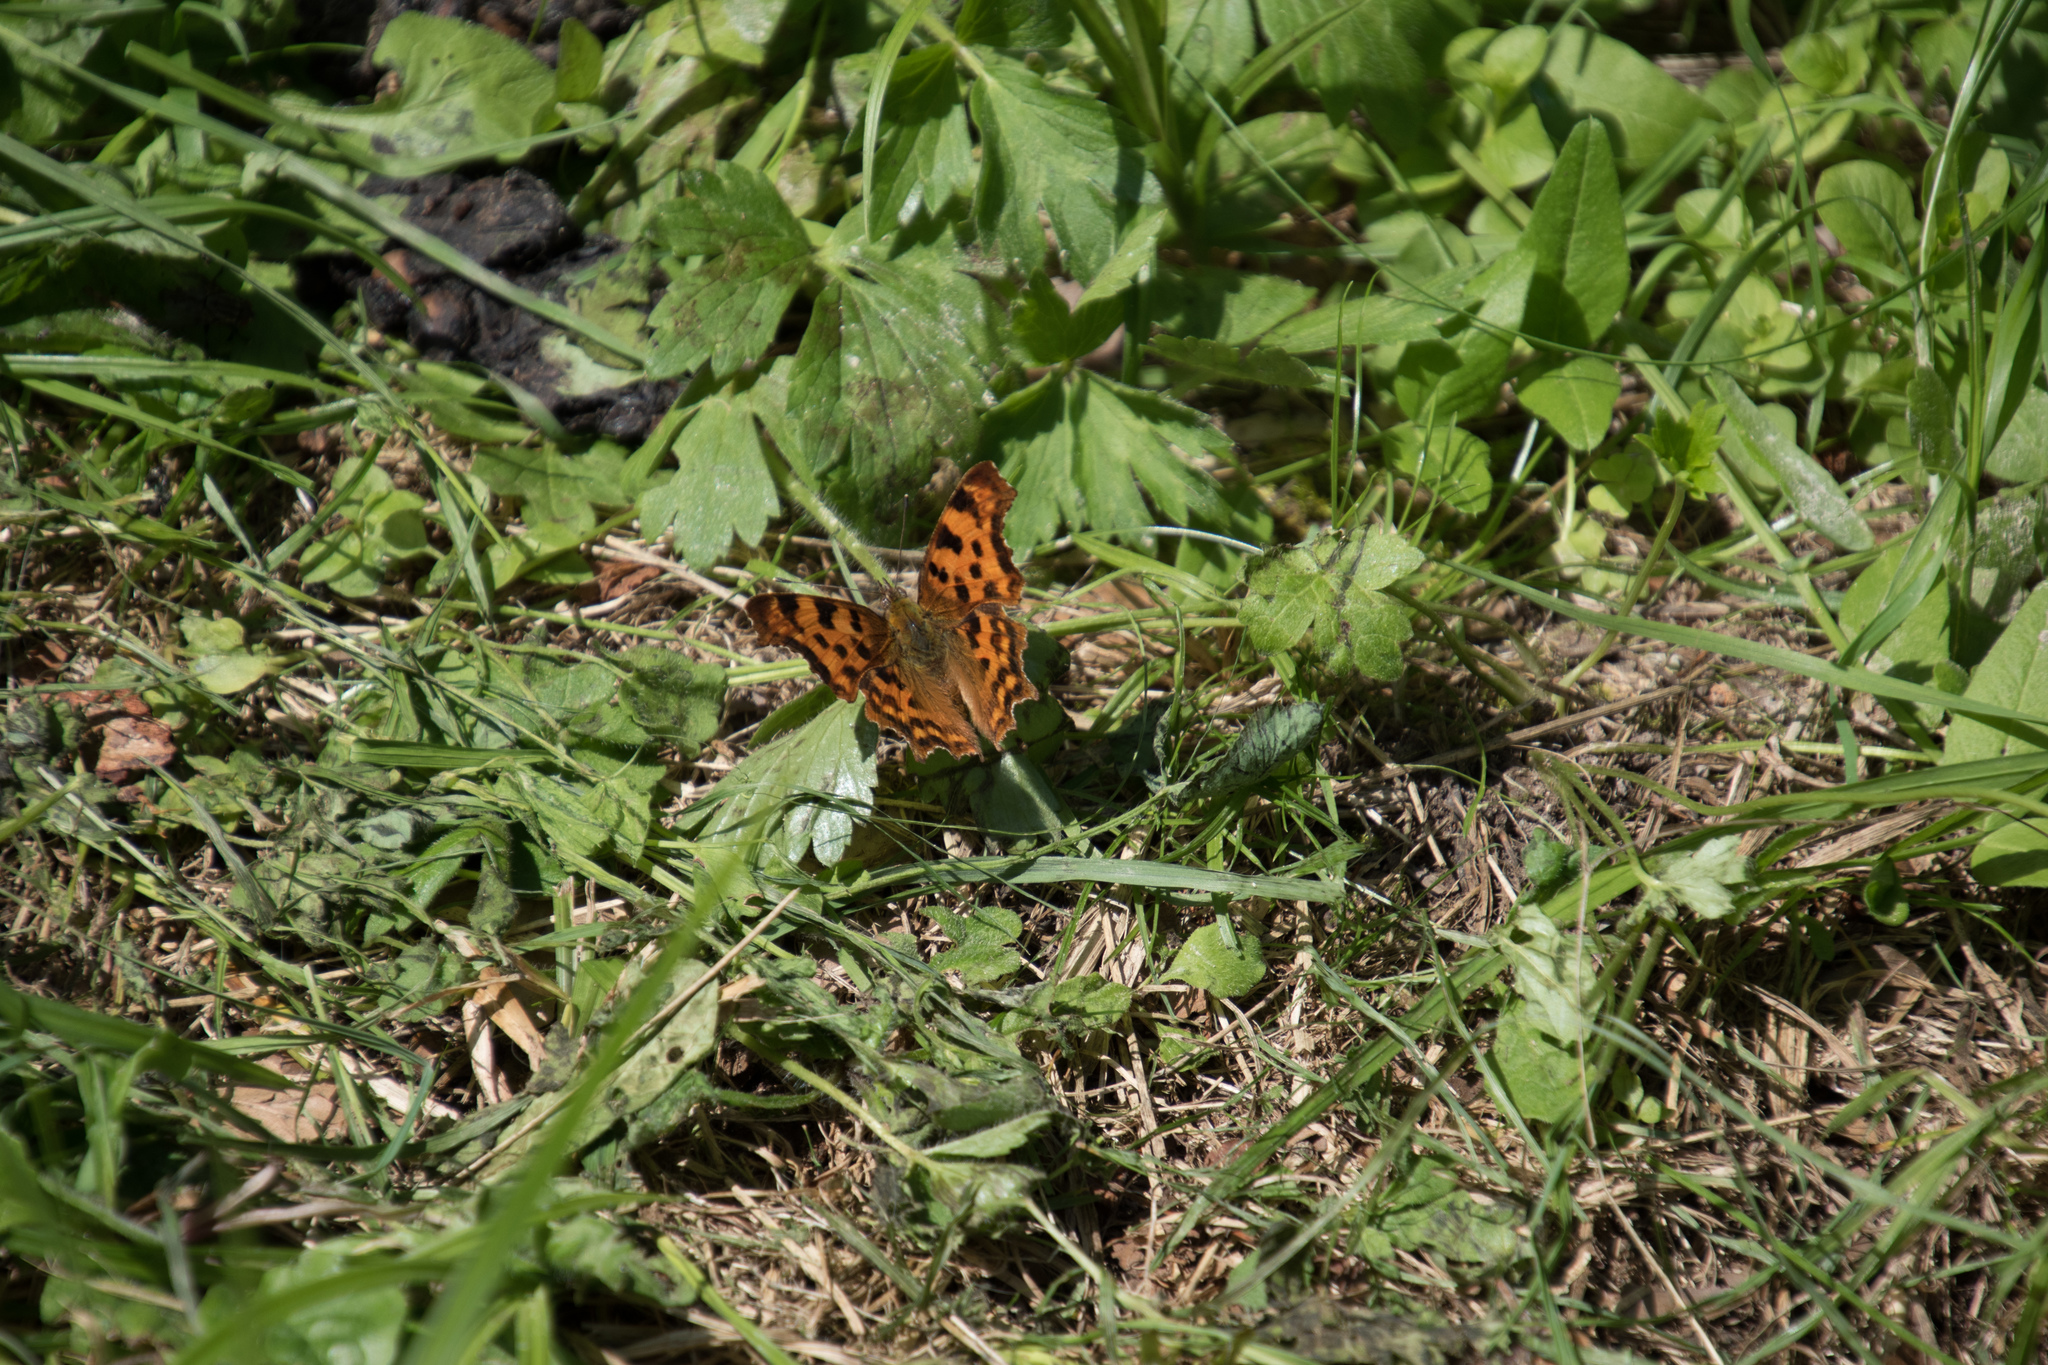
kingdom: Animalia
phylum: Arthropoda
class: Insecta
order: Lepidoptera
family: Nymphalidae
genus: Polygonia
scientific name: Polygonia c-album
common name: Comma
